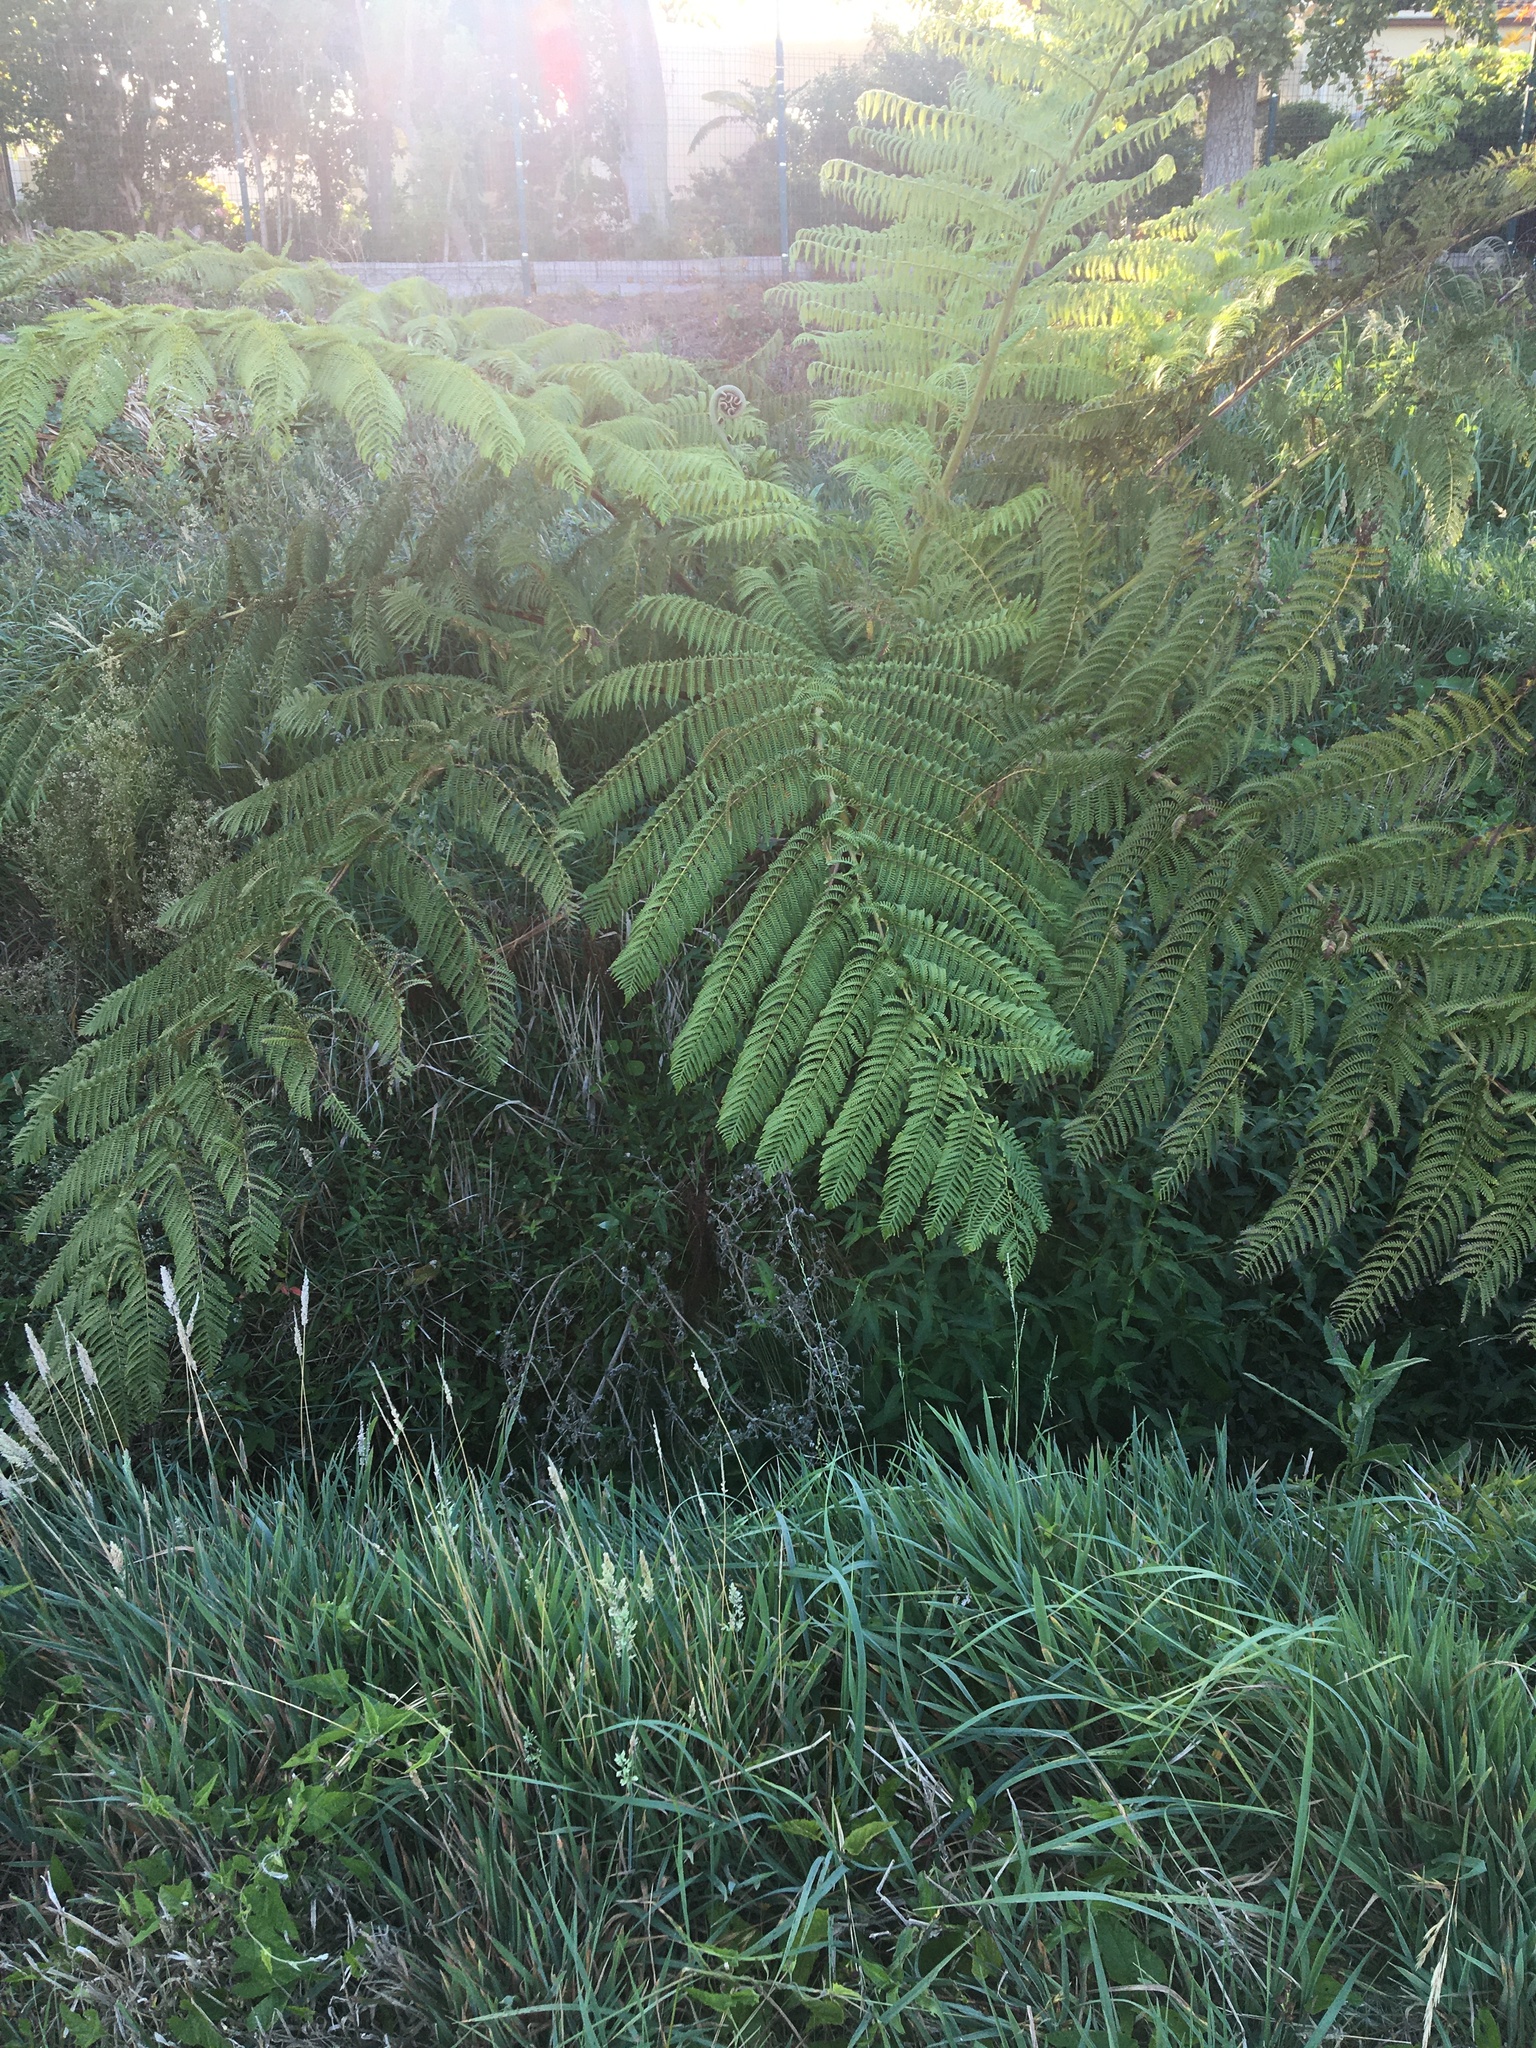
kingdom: Plantae
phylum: Tracheophyta
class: Polypodiopsida
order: Cyatheales
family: Cyatheaceae
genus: Sphaeropteris
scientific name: Sphaeropteris cooperi
